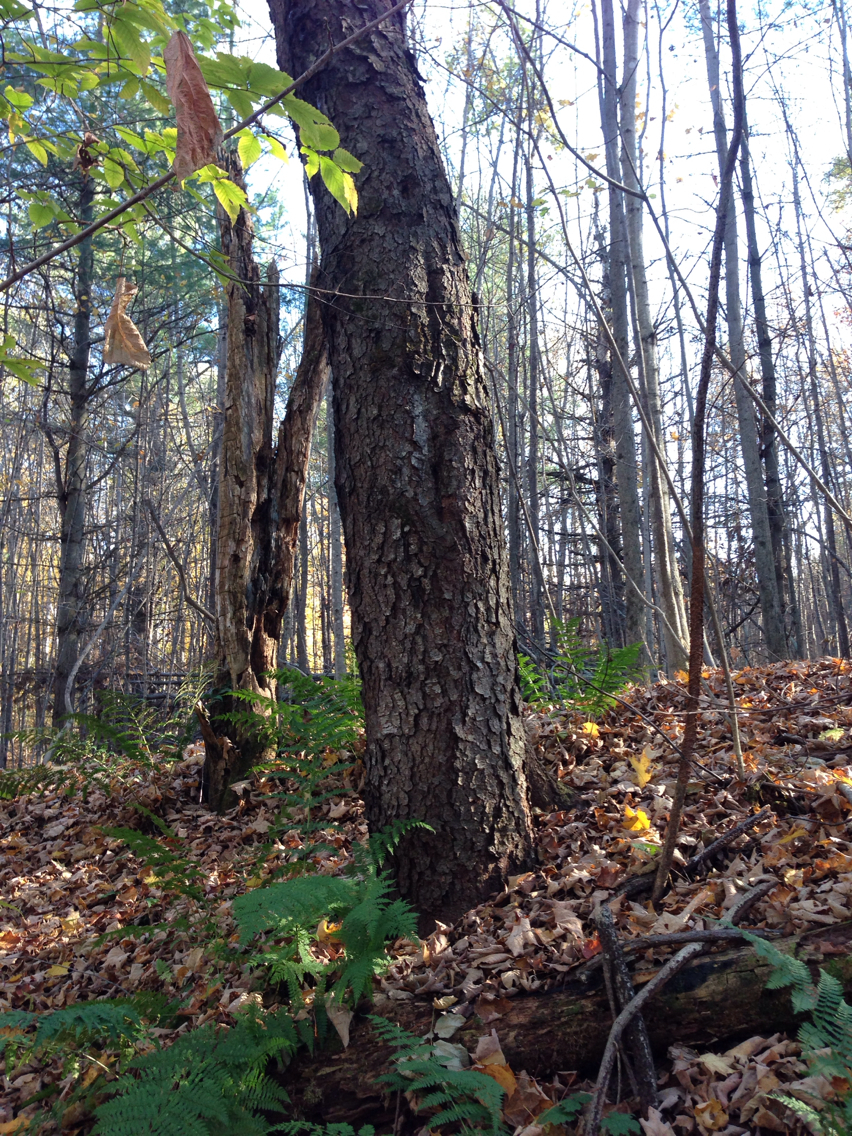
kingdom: Plantae
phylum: Tracheophyta
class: Magnoliopsida
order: Rosales
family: Rosaceae
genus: Prunus
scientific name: Prunus serotina
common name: Black cherry
